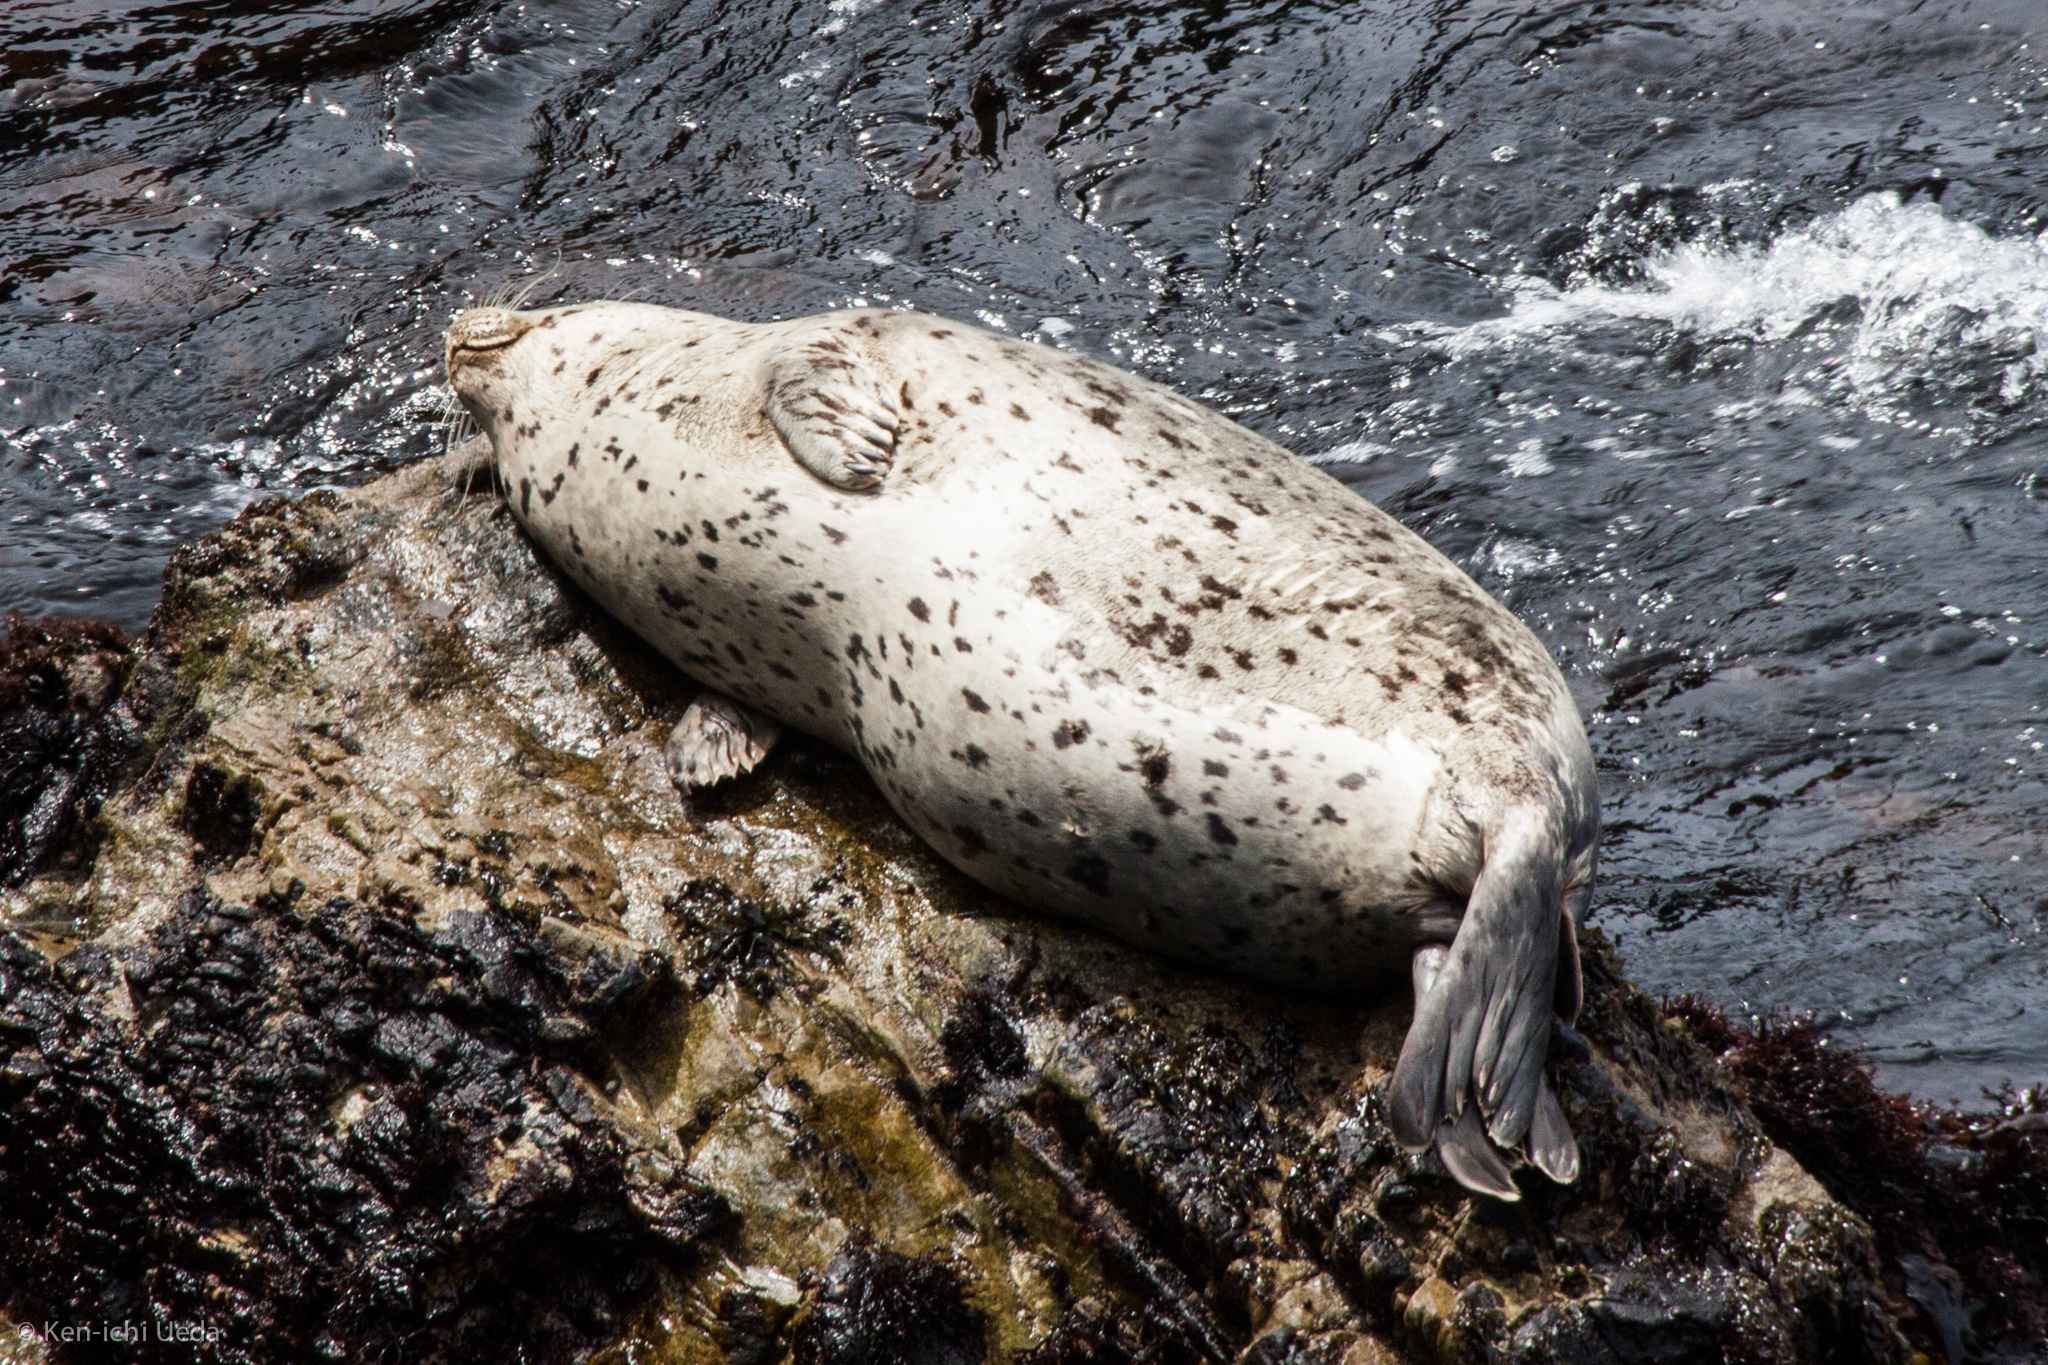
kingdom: Animalia
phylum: Chordata
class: Mammalia
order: Carnivora
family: Phocidae
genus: Phoca
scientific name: Phoca vitulina
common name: Harbor seal
